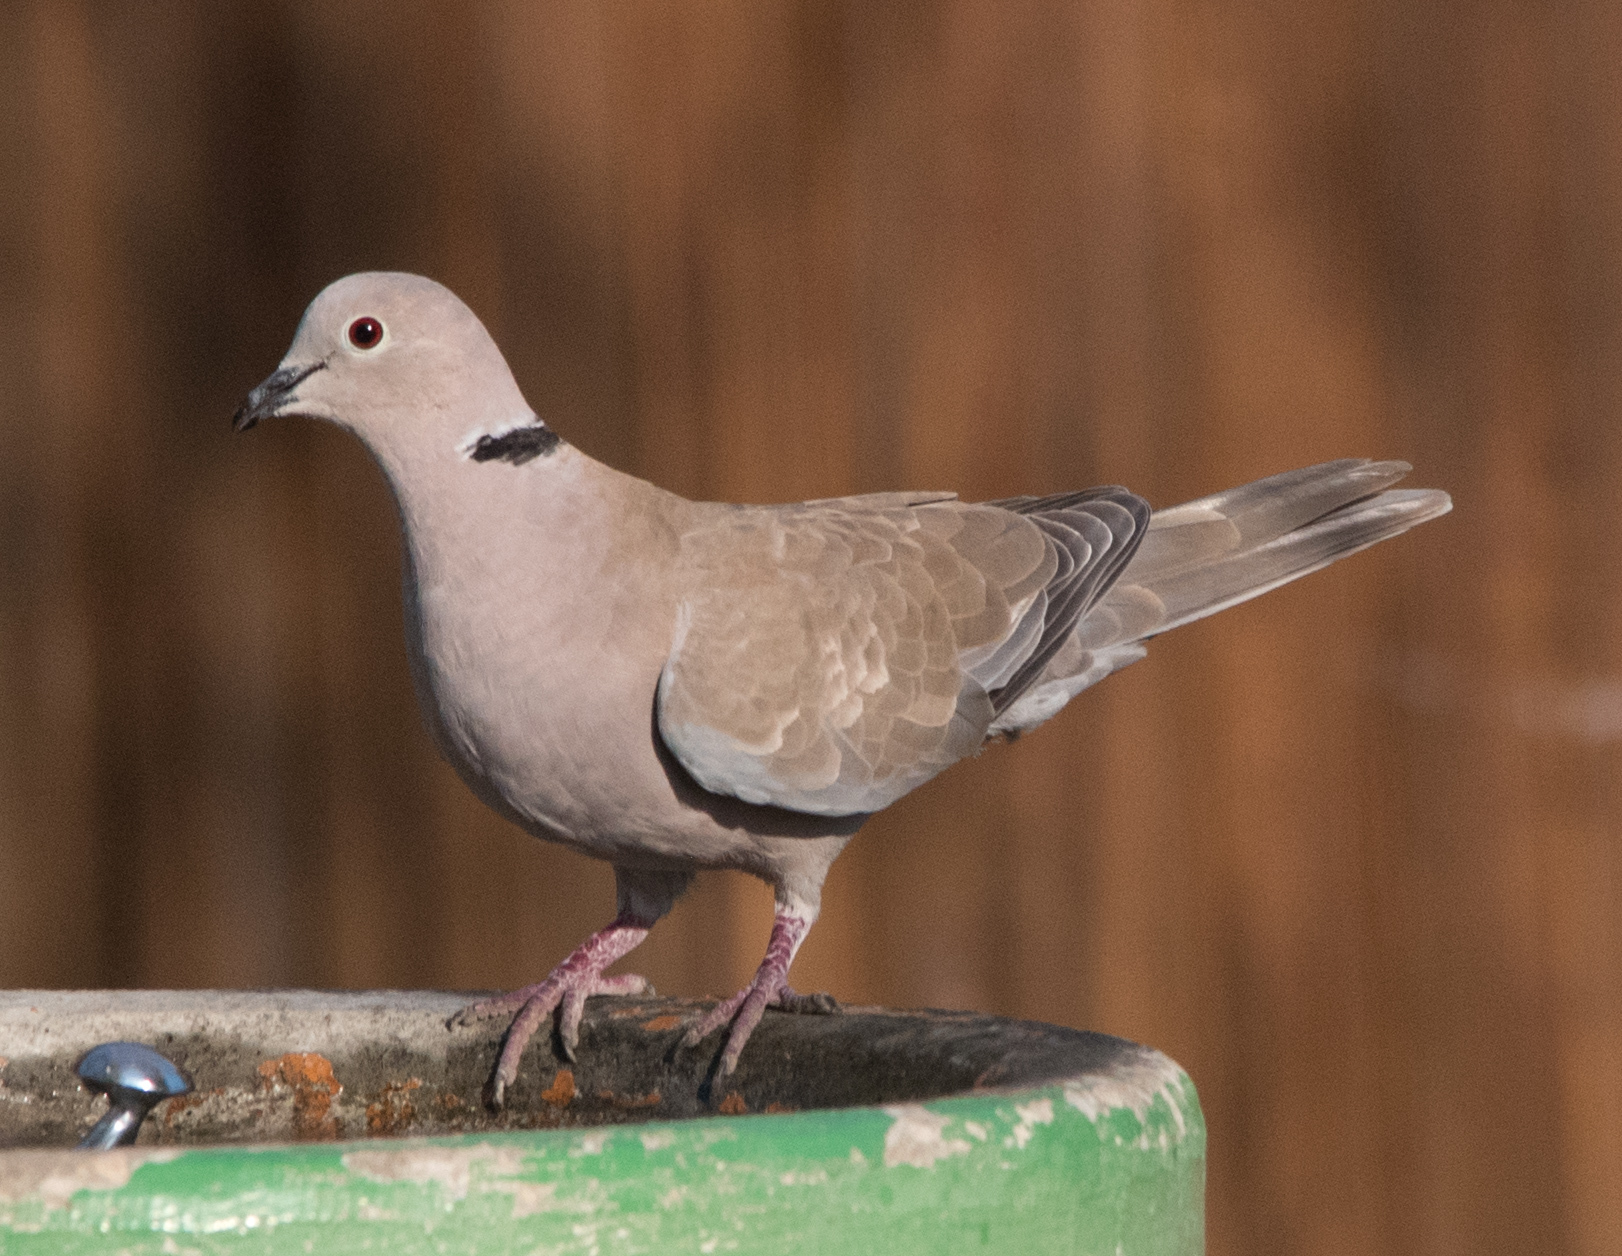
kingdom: Animalia
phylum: Chordata
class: Aves
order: Columbiformes
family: Columbidae
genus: Streptopelia
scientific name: Streptopelia decaocto
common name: Eurasian collared dove
